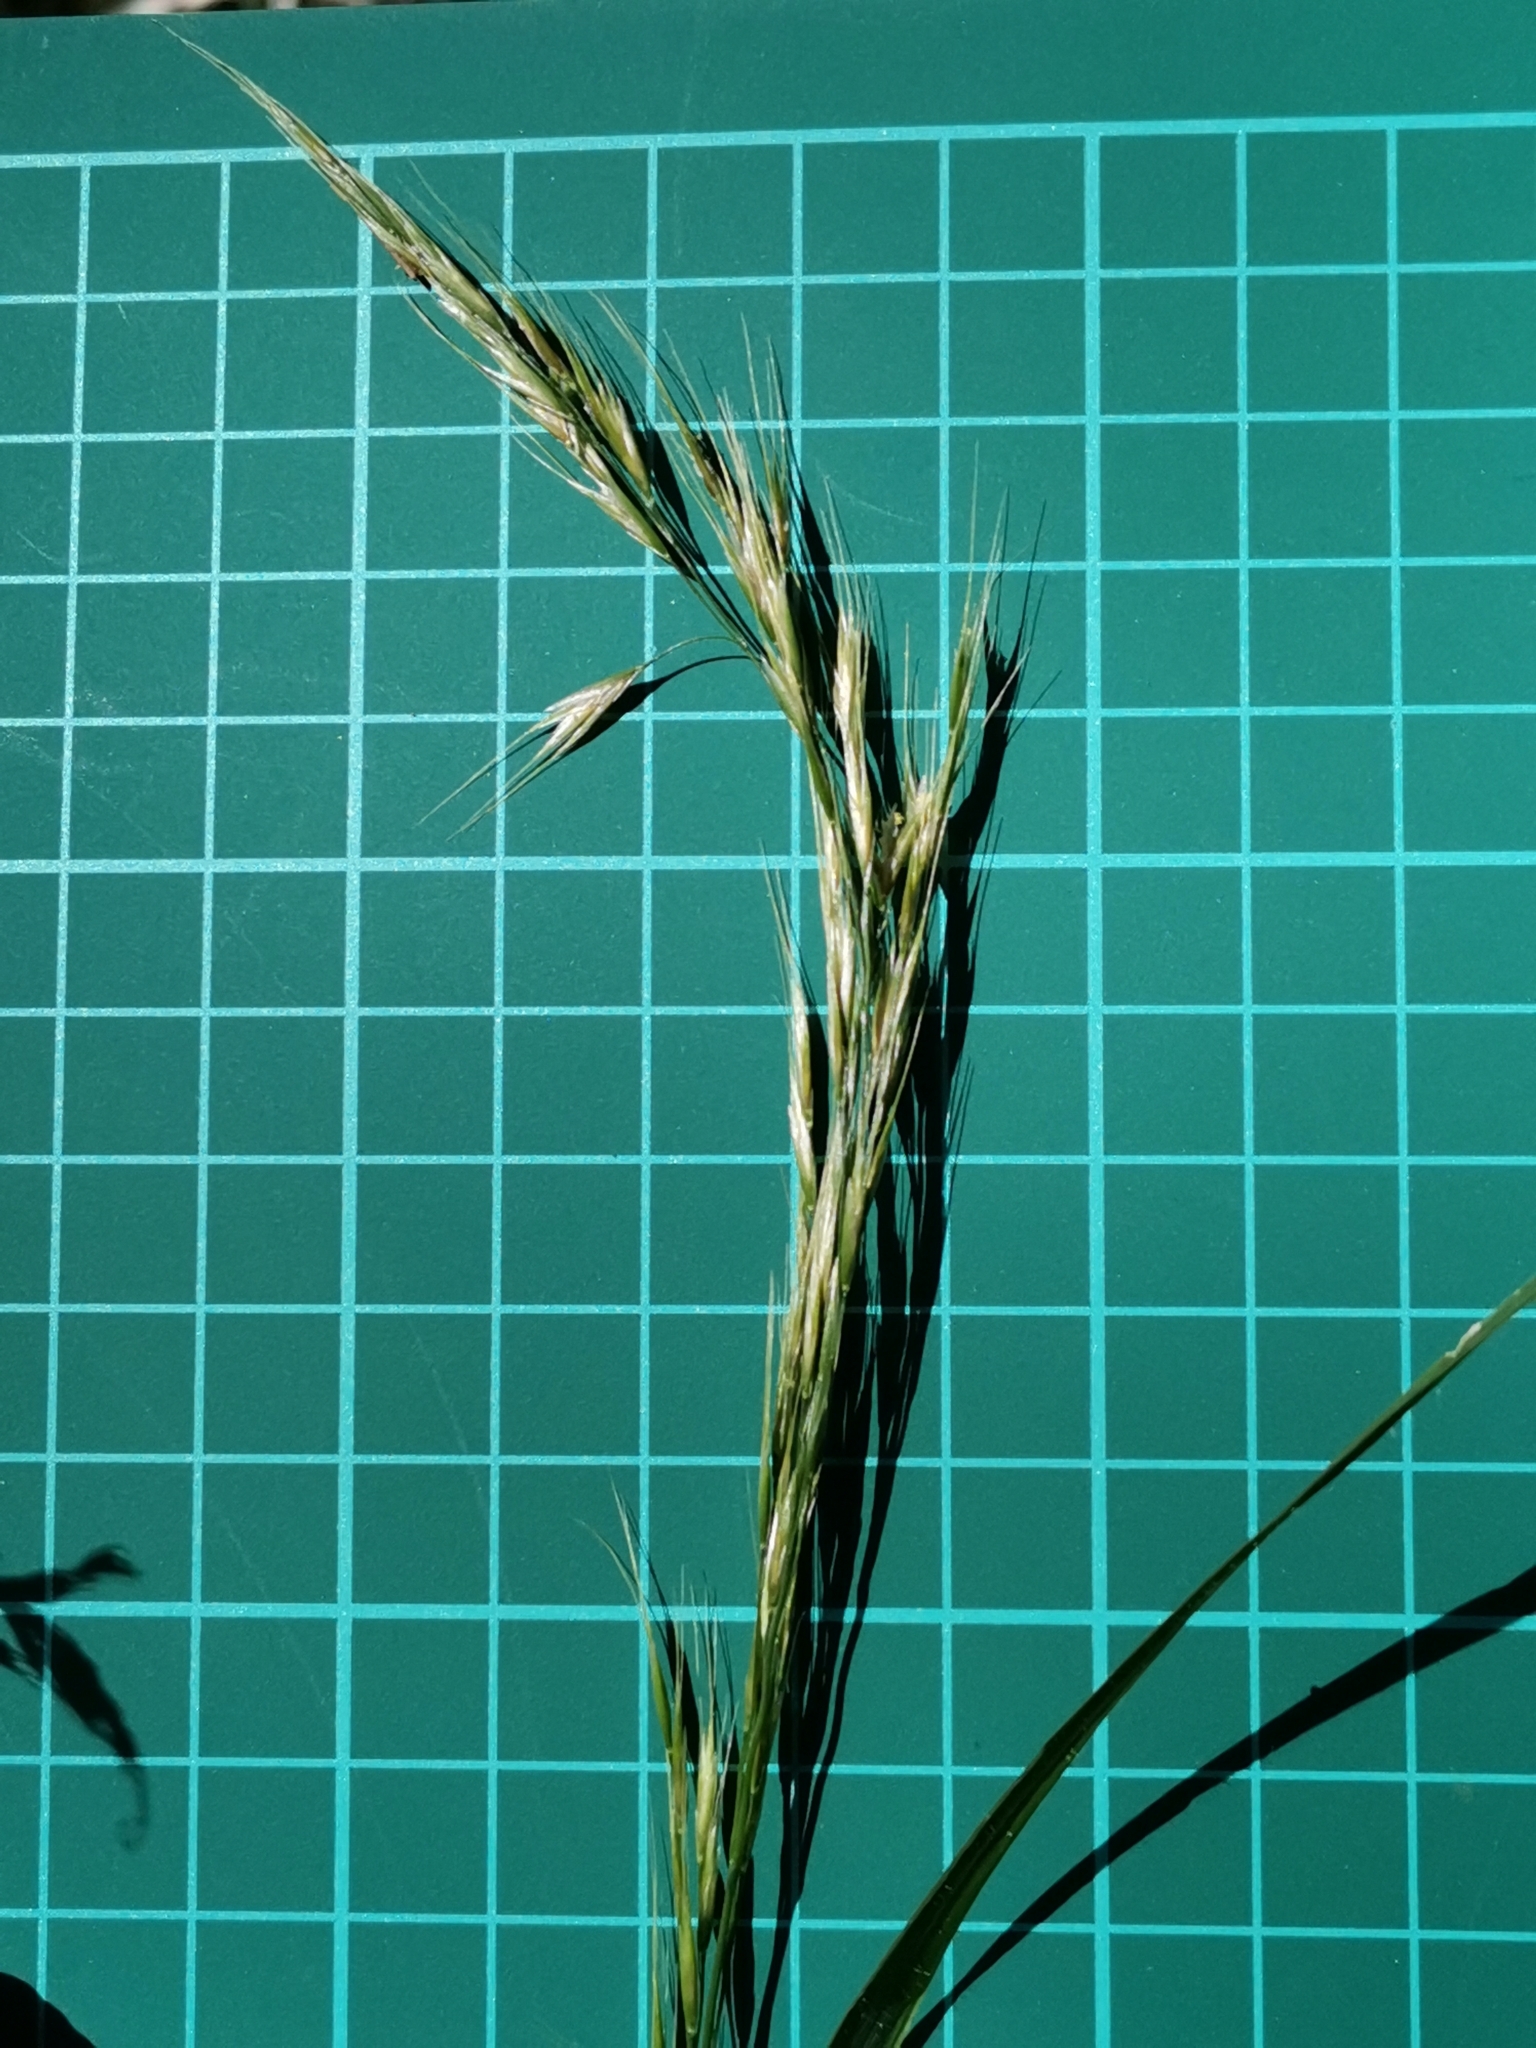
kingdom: Plantae
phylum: Tracheophyta
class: Liliopsida
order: Poales
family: Poaceae
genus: Sibirotrisetum
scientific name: Sibirotrisetum bifidum
